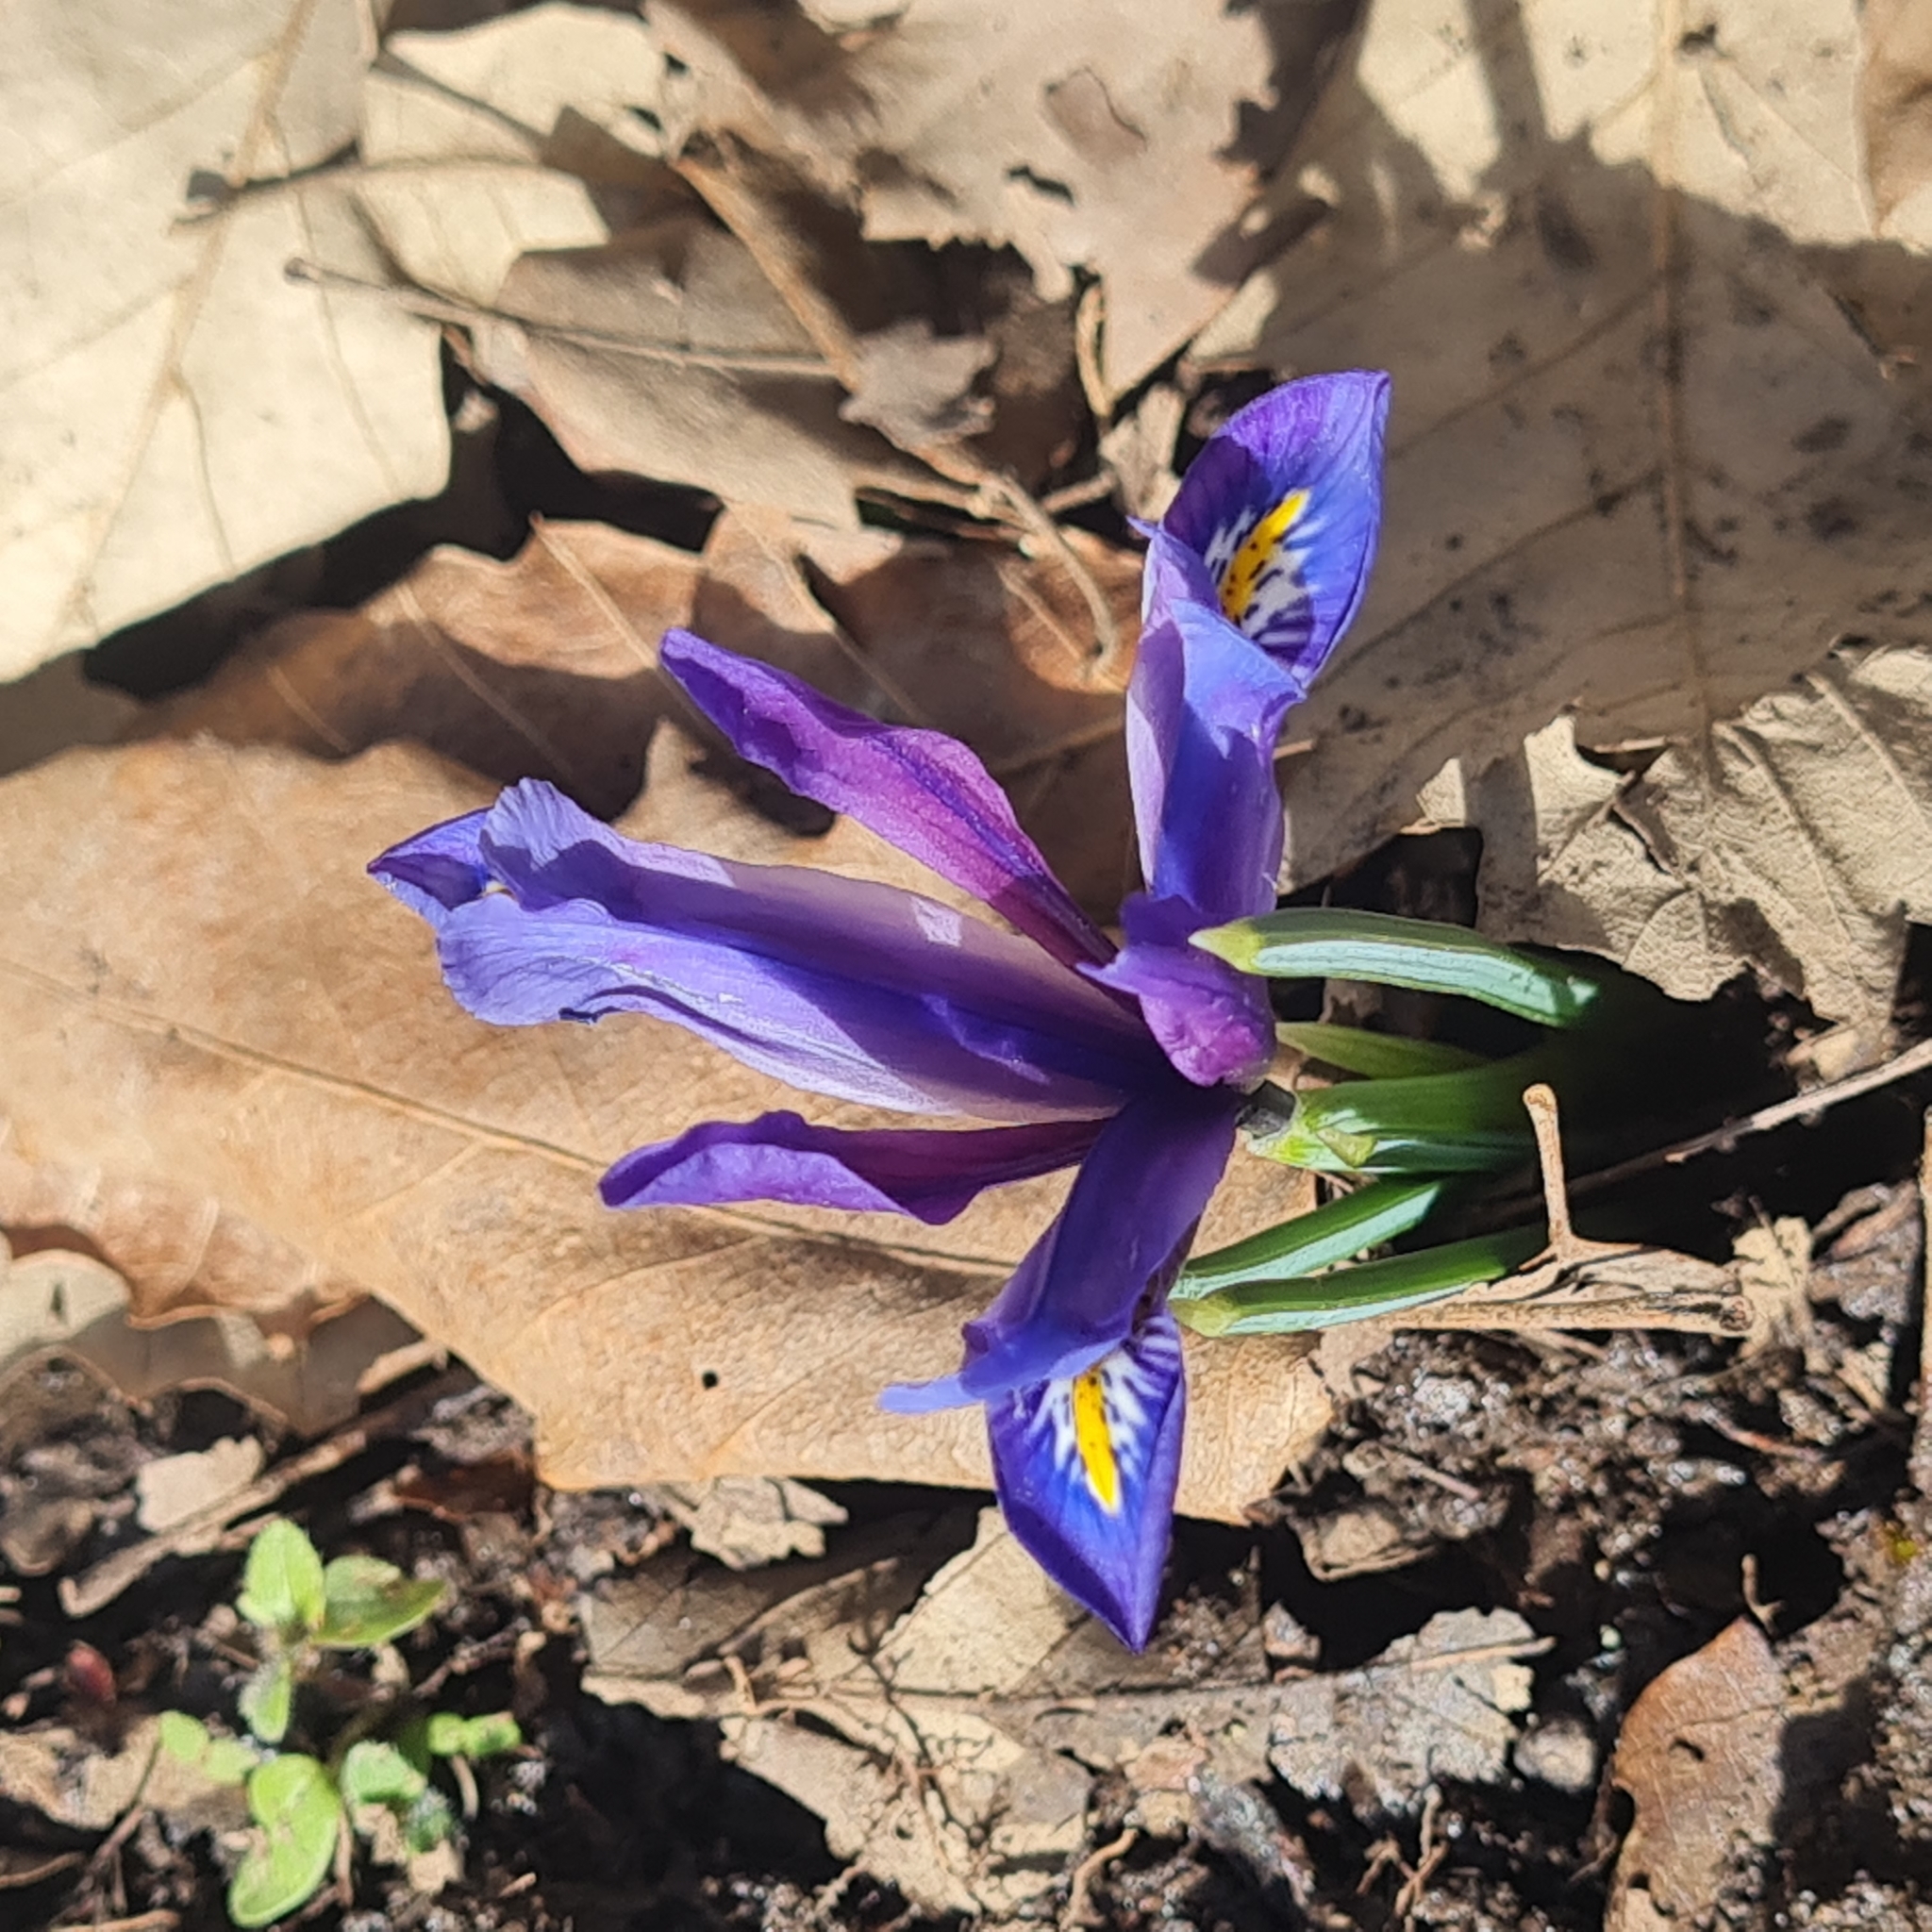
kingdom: Plantae
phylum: Tracheophyta
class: Liliopsida
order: Asparagales
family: Iridaceae
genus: Iris
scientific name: Iris reticulata
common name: Netted iris
